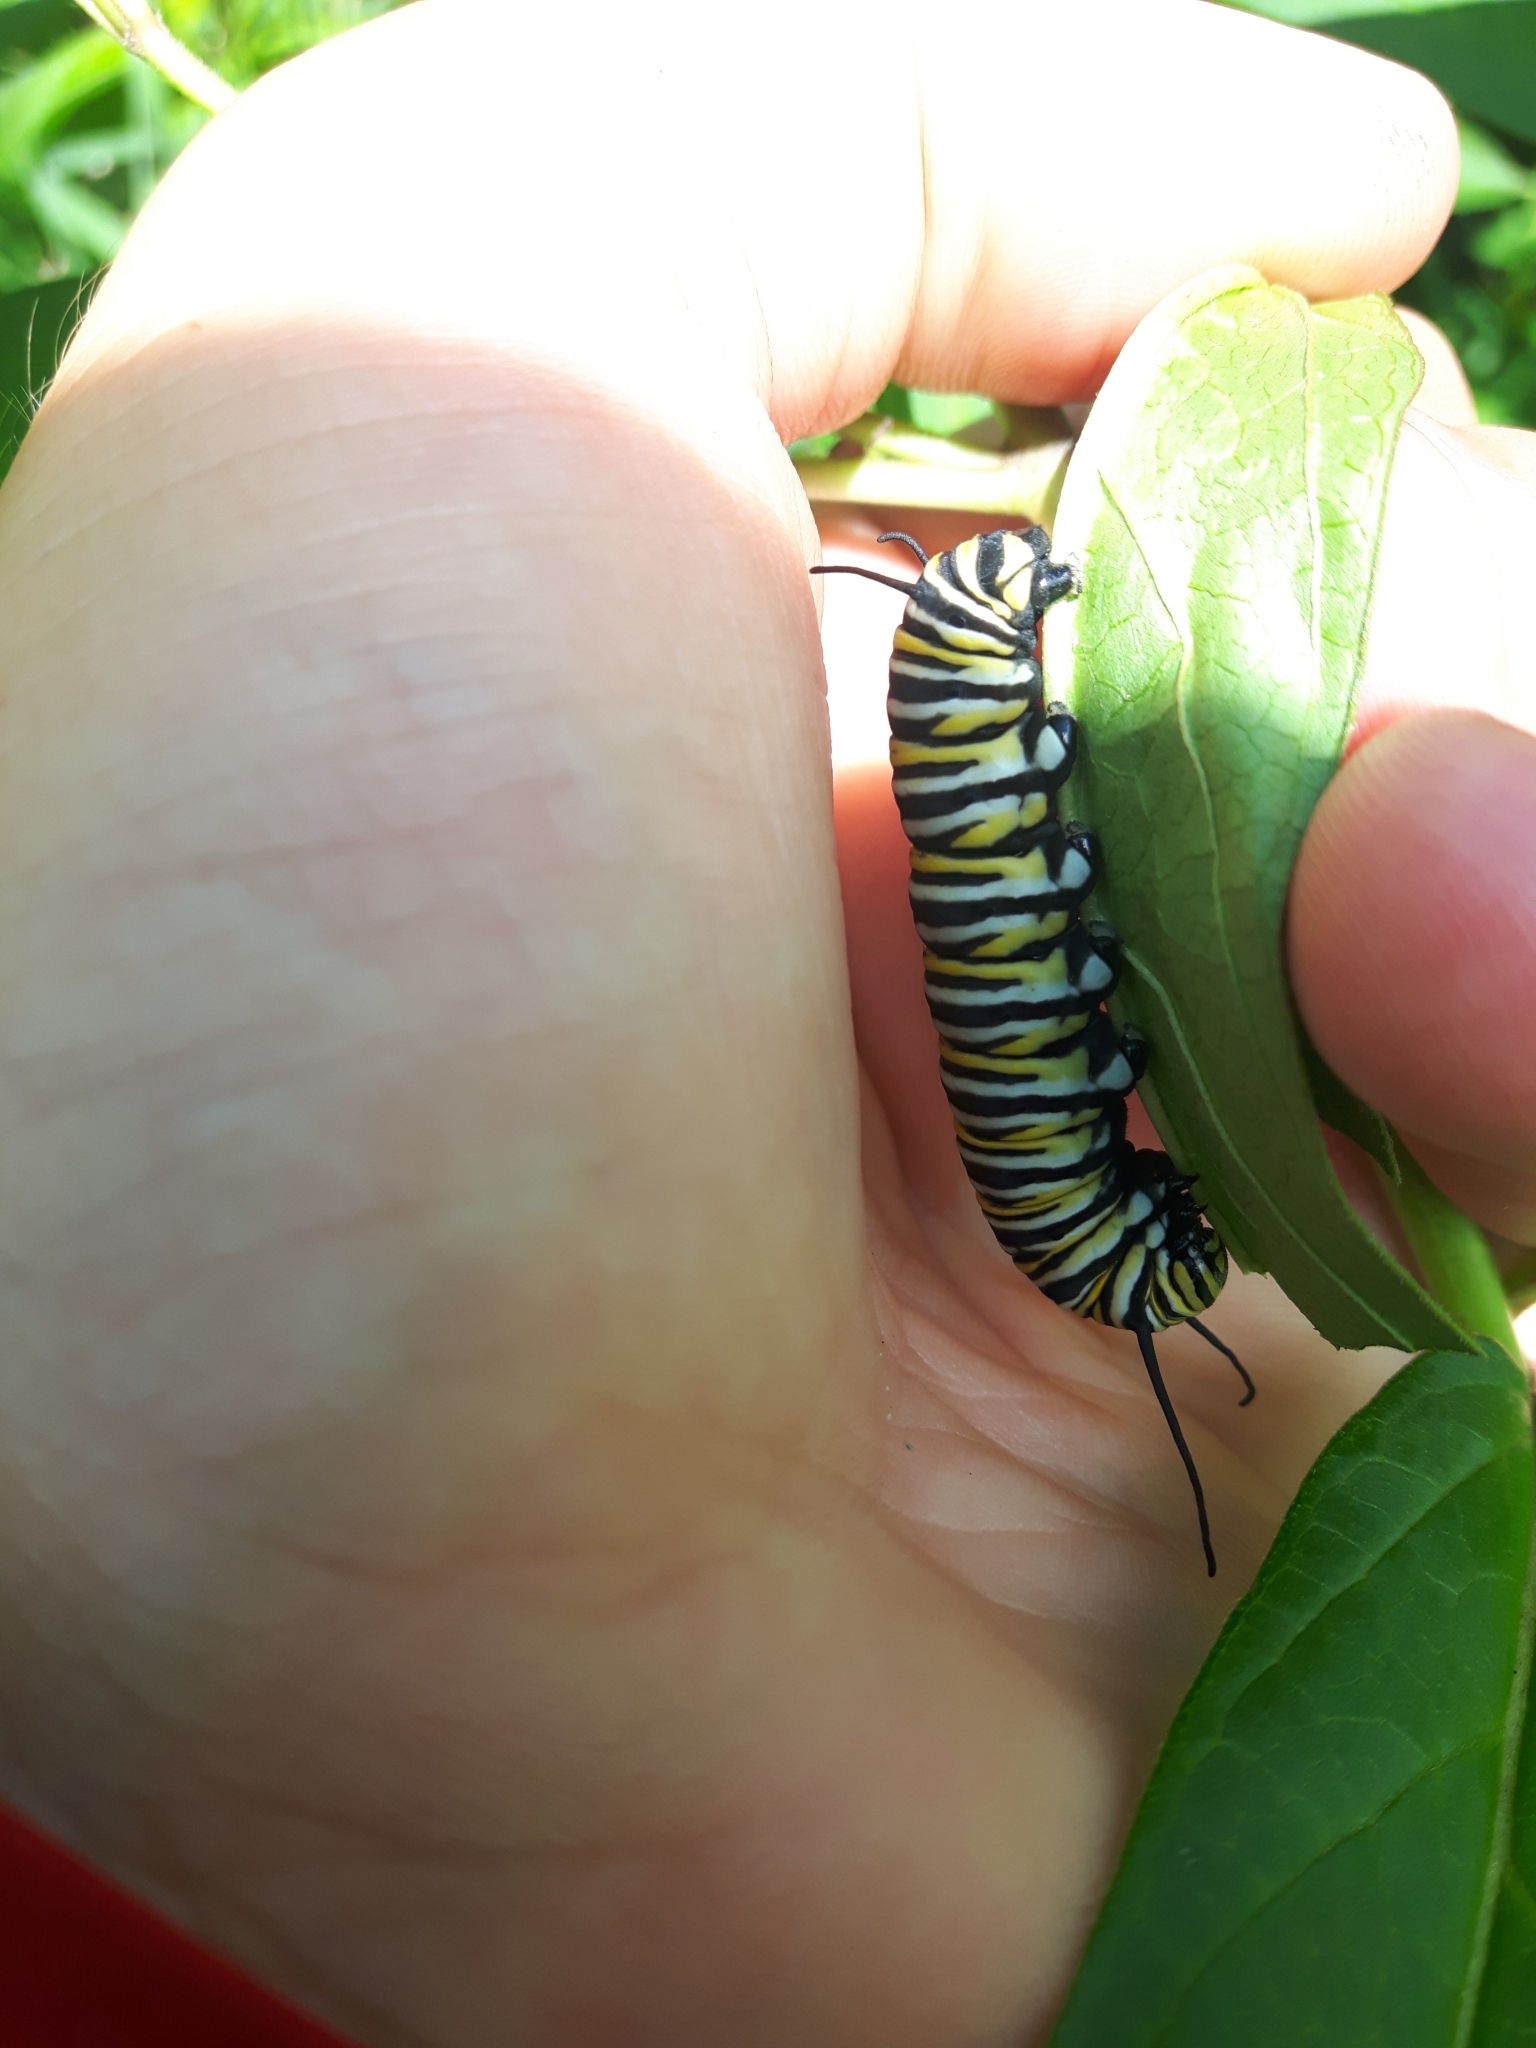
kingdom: Animalia
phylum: Arthropoda
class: Insecta
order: Lepidoptera
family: Nymphalidae
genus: Danaus
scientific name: Danaus plexippus
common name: Monarch
